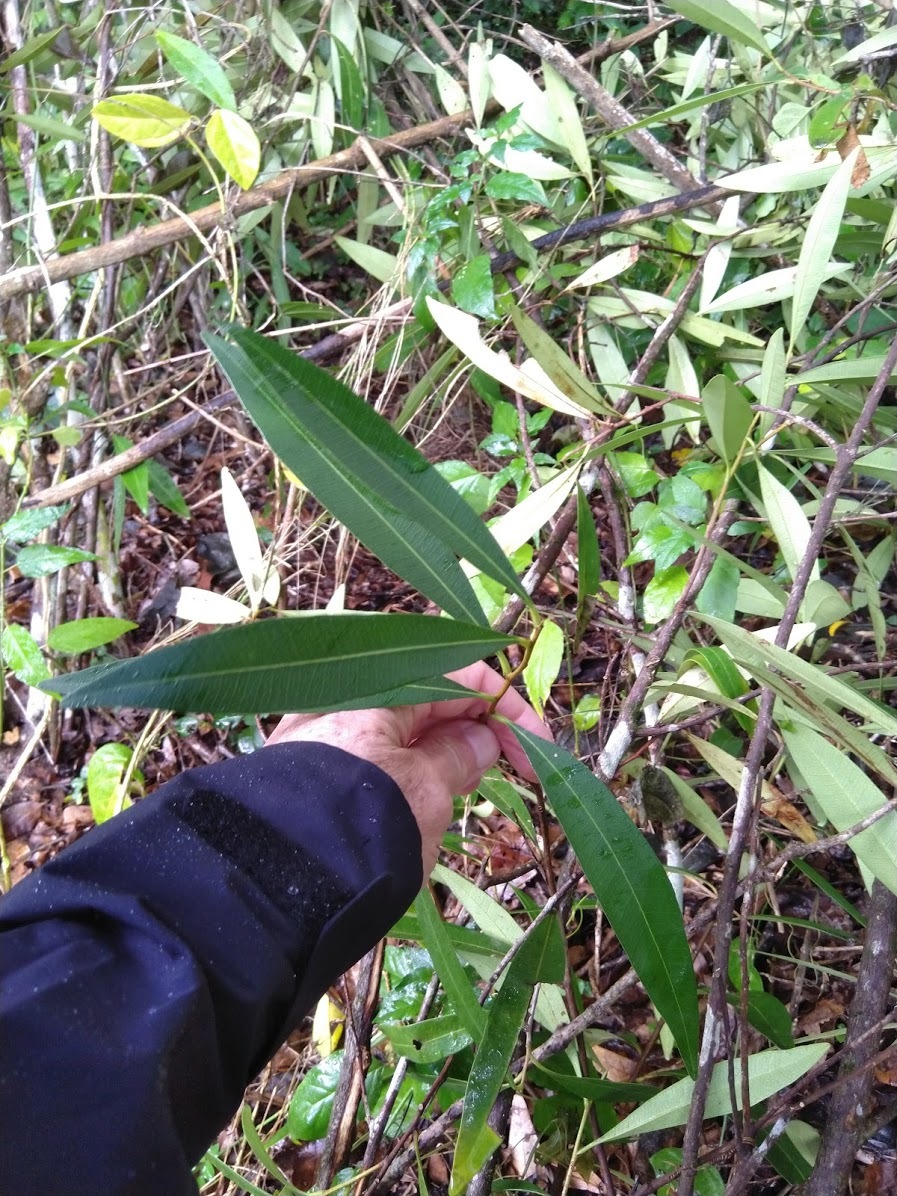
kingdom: Plantae
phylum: Tracheophyta
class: Magnoliopsida
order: Sapindales
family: Simaroubaceae
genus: Samadera
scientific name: Samadera bidwillii
